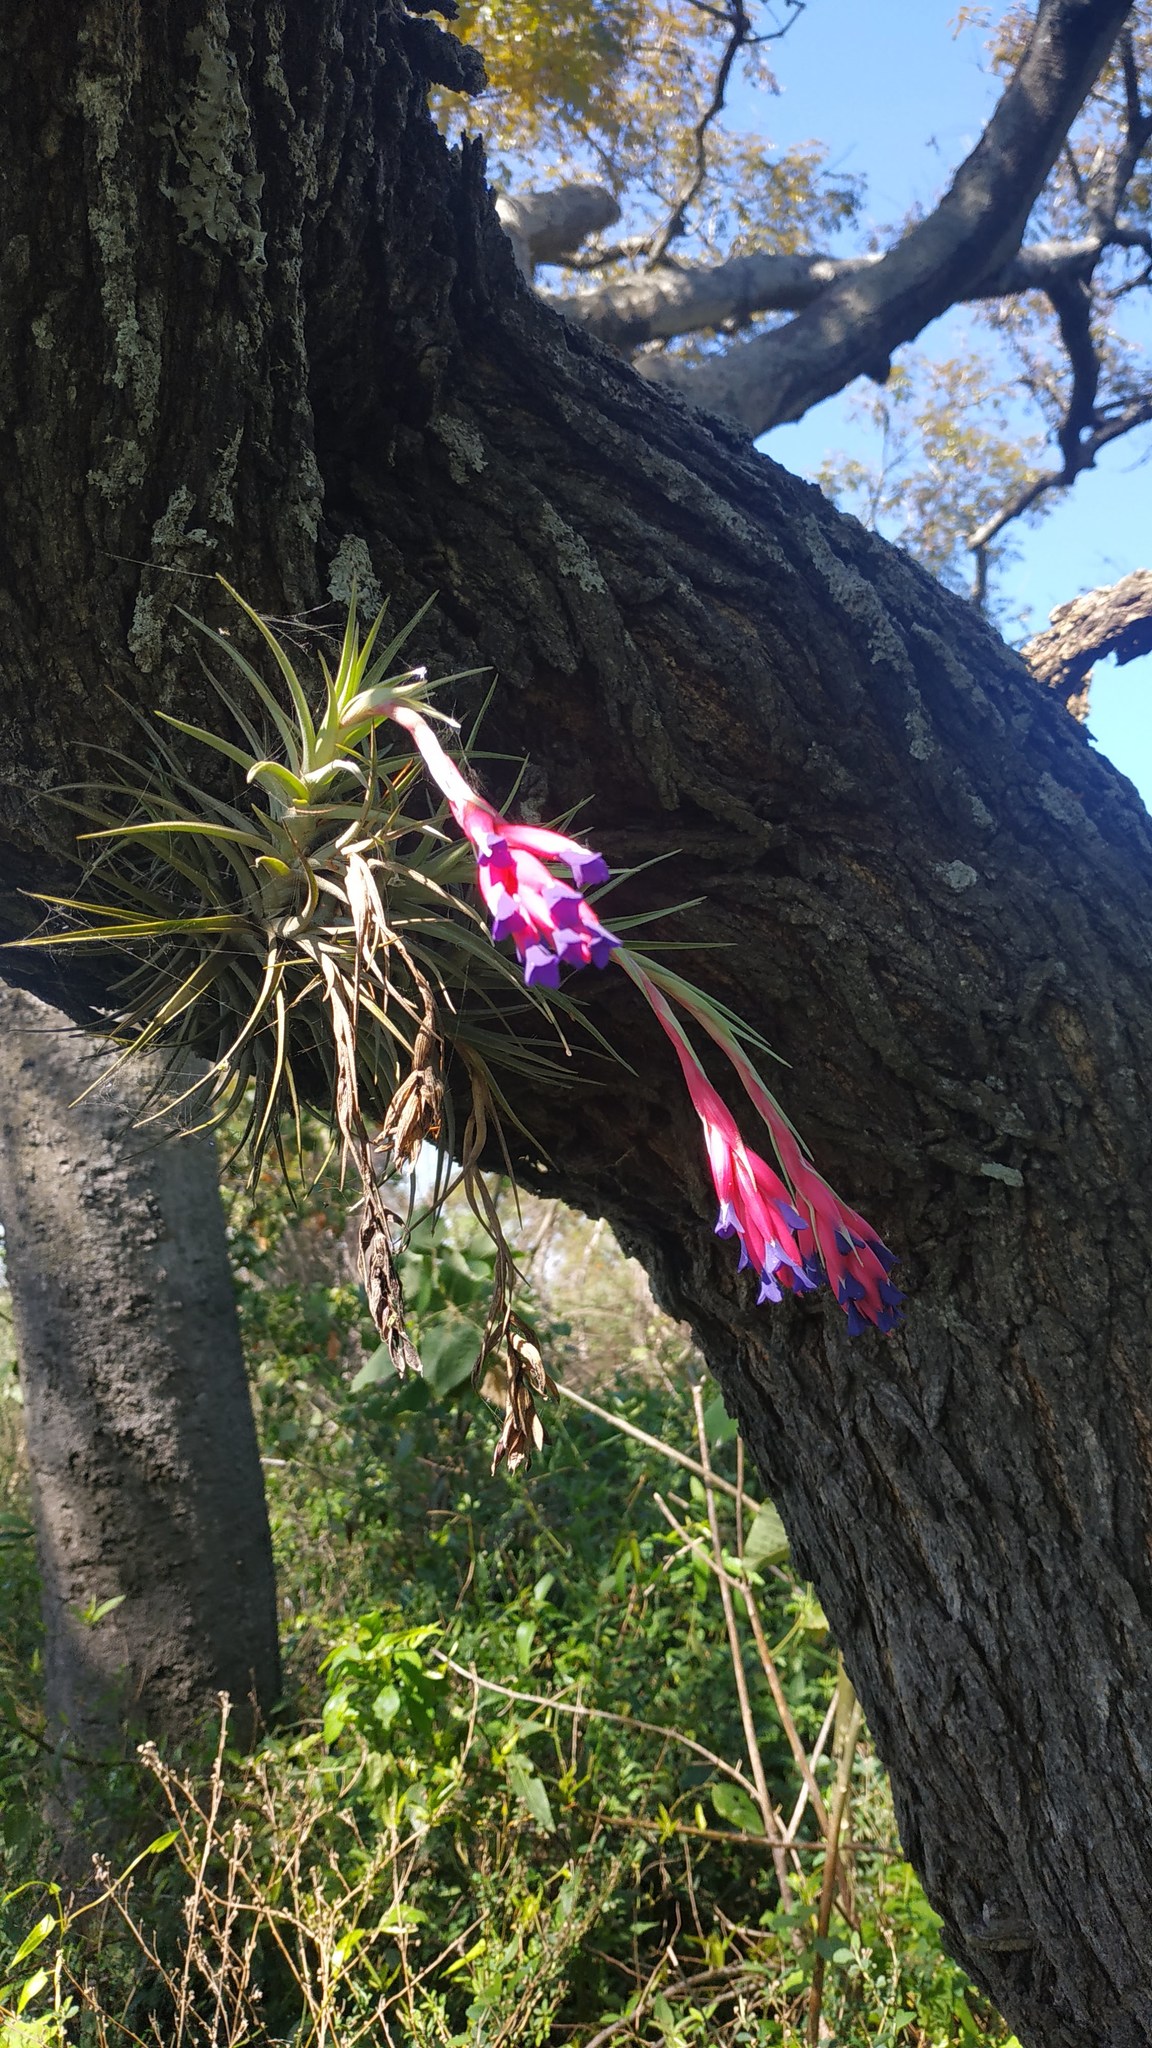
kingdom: Plantae
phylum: Tracheophyta
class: Liliopsida
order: Poales
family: Bromeliaceae
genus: Tillandsia
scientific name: Tillandsia aeranthos
